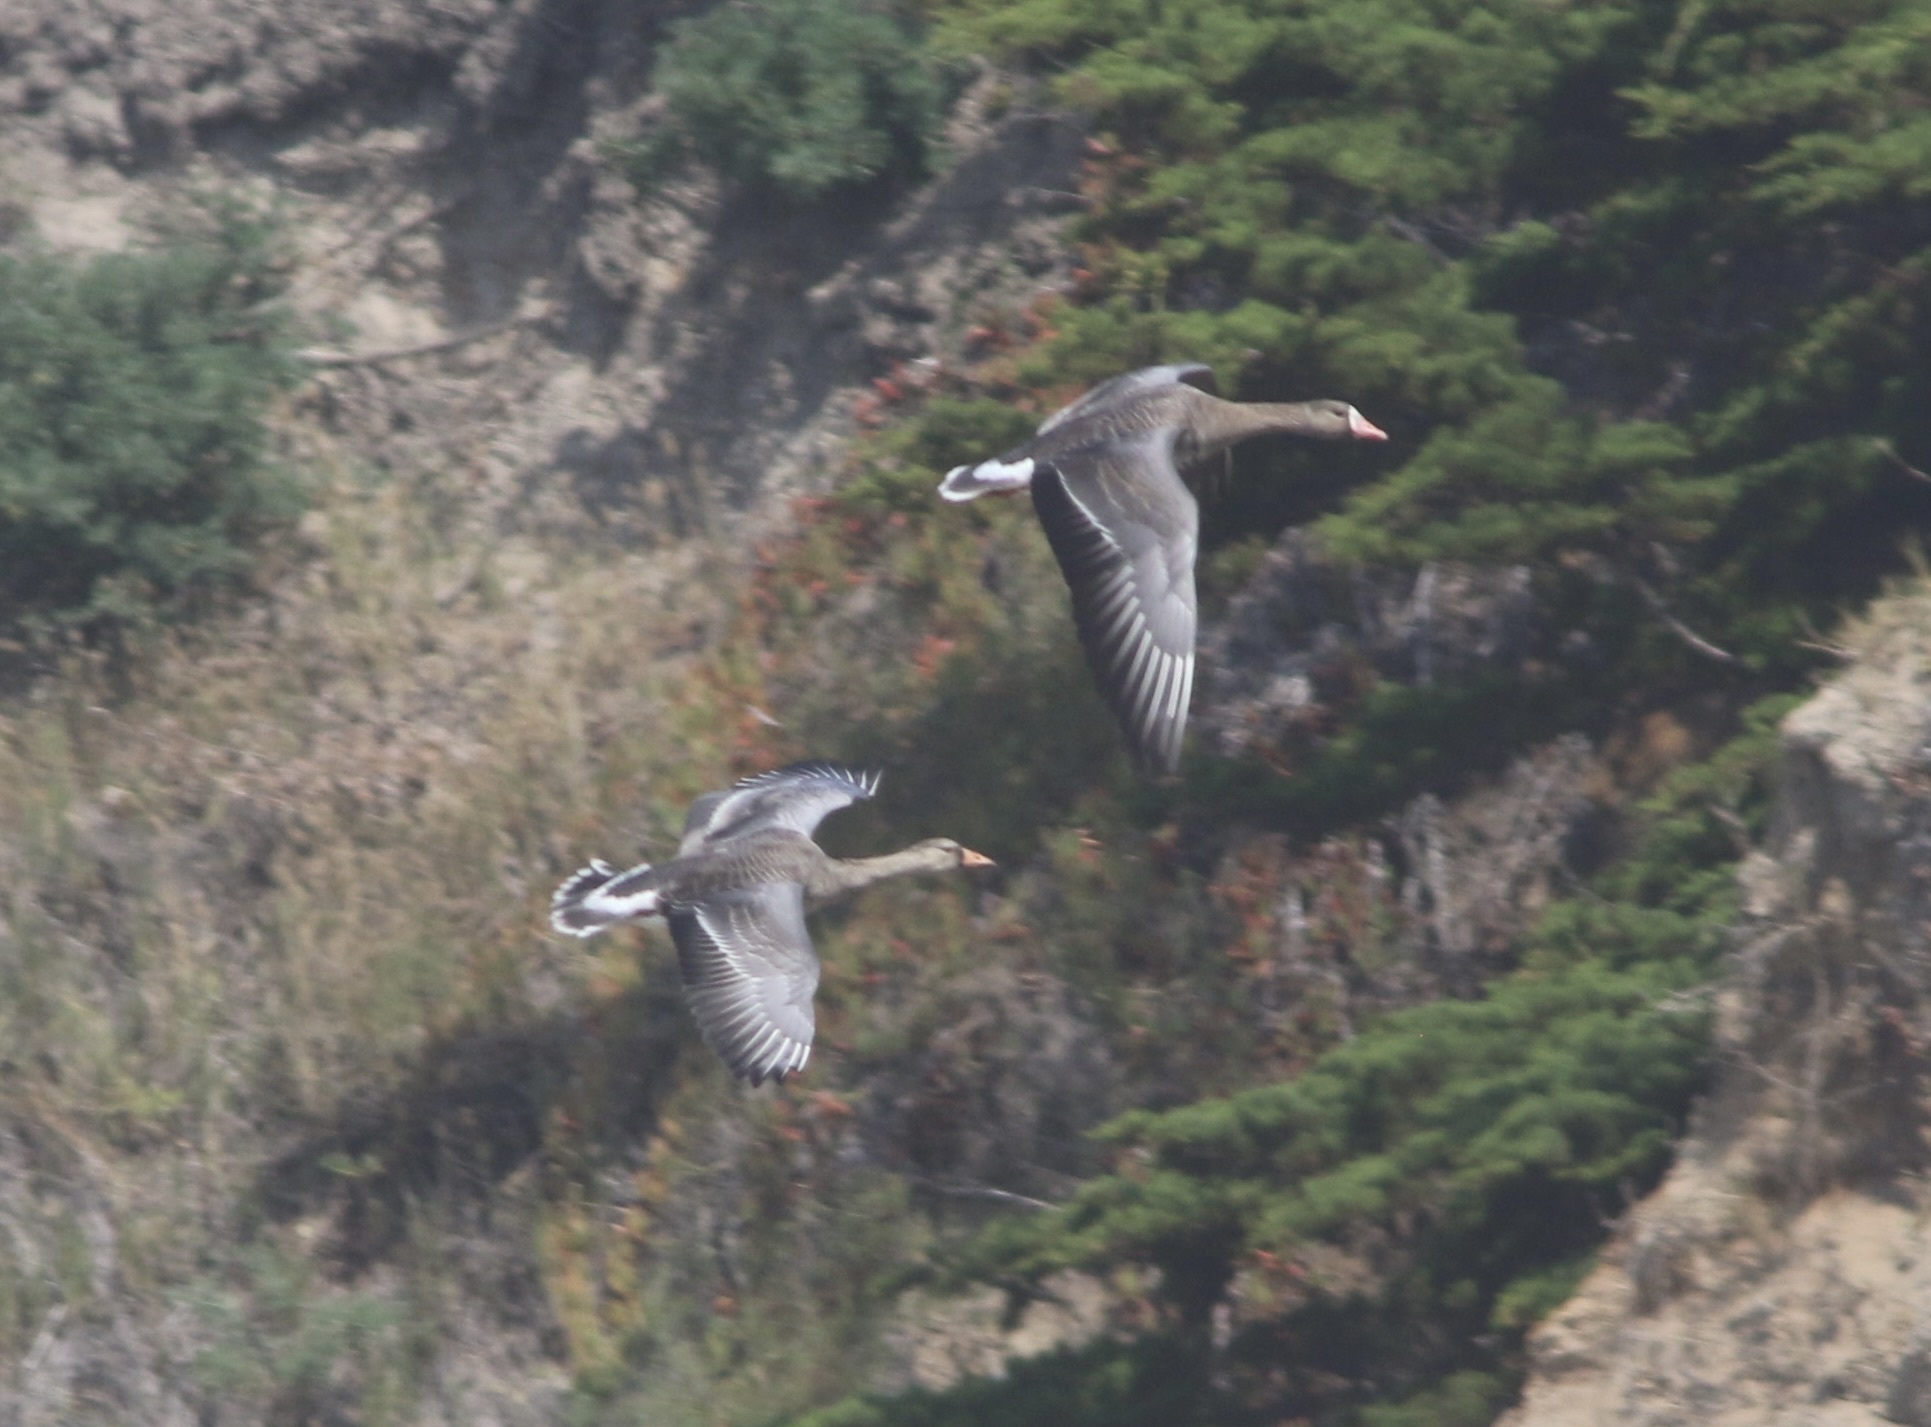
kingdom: Animalia
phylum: Chordata
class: Aves
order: Anseriformes
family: Anatidae
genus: Anser
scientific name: Anser albifrons
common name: Greater white-fronted goose
